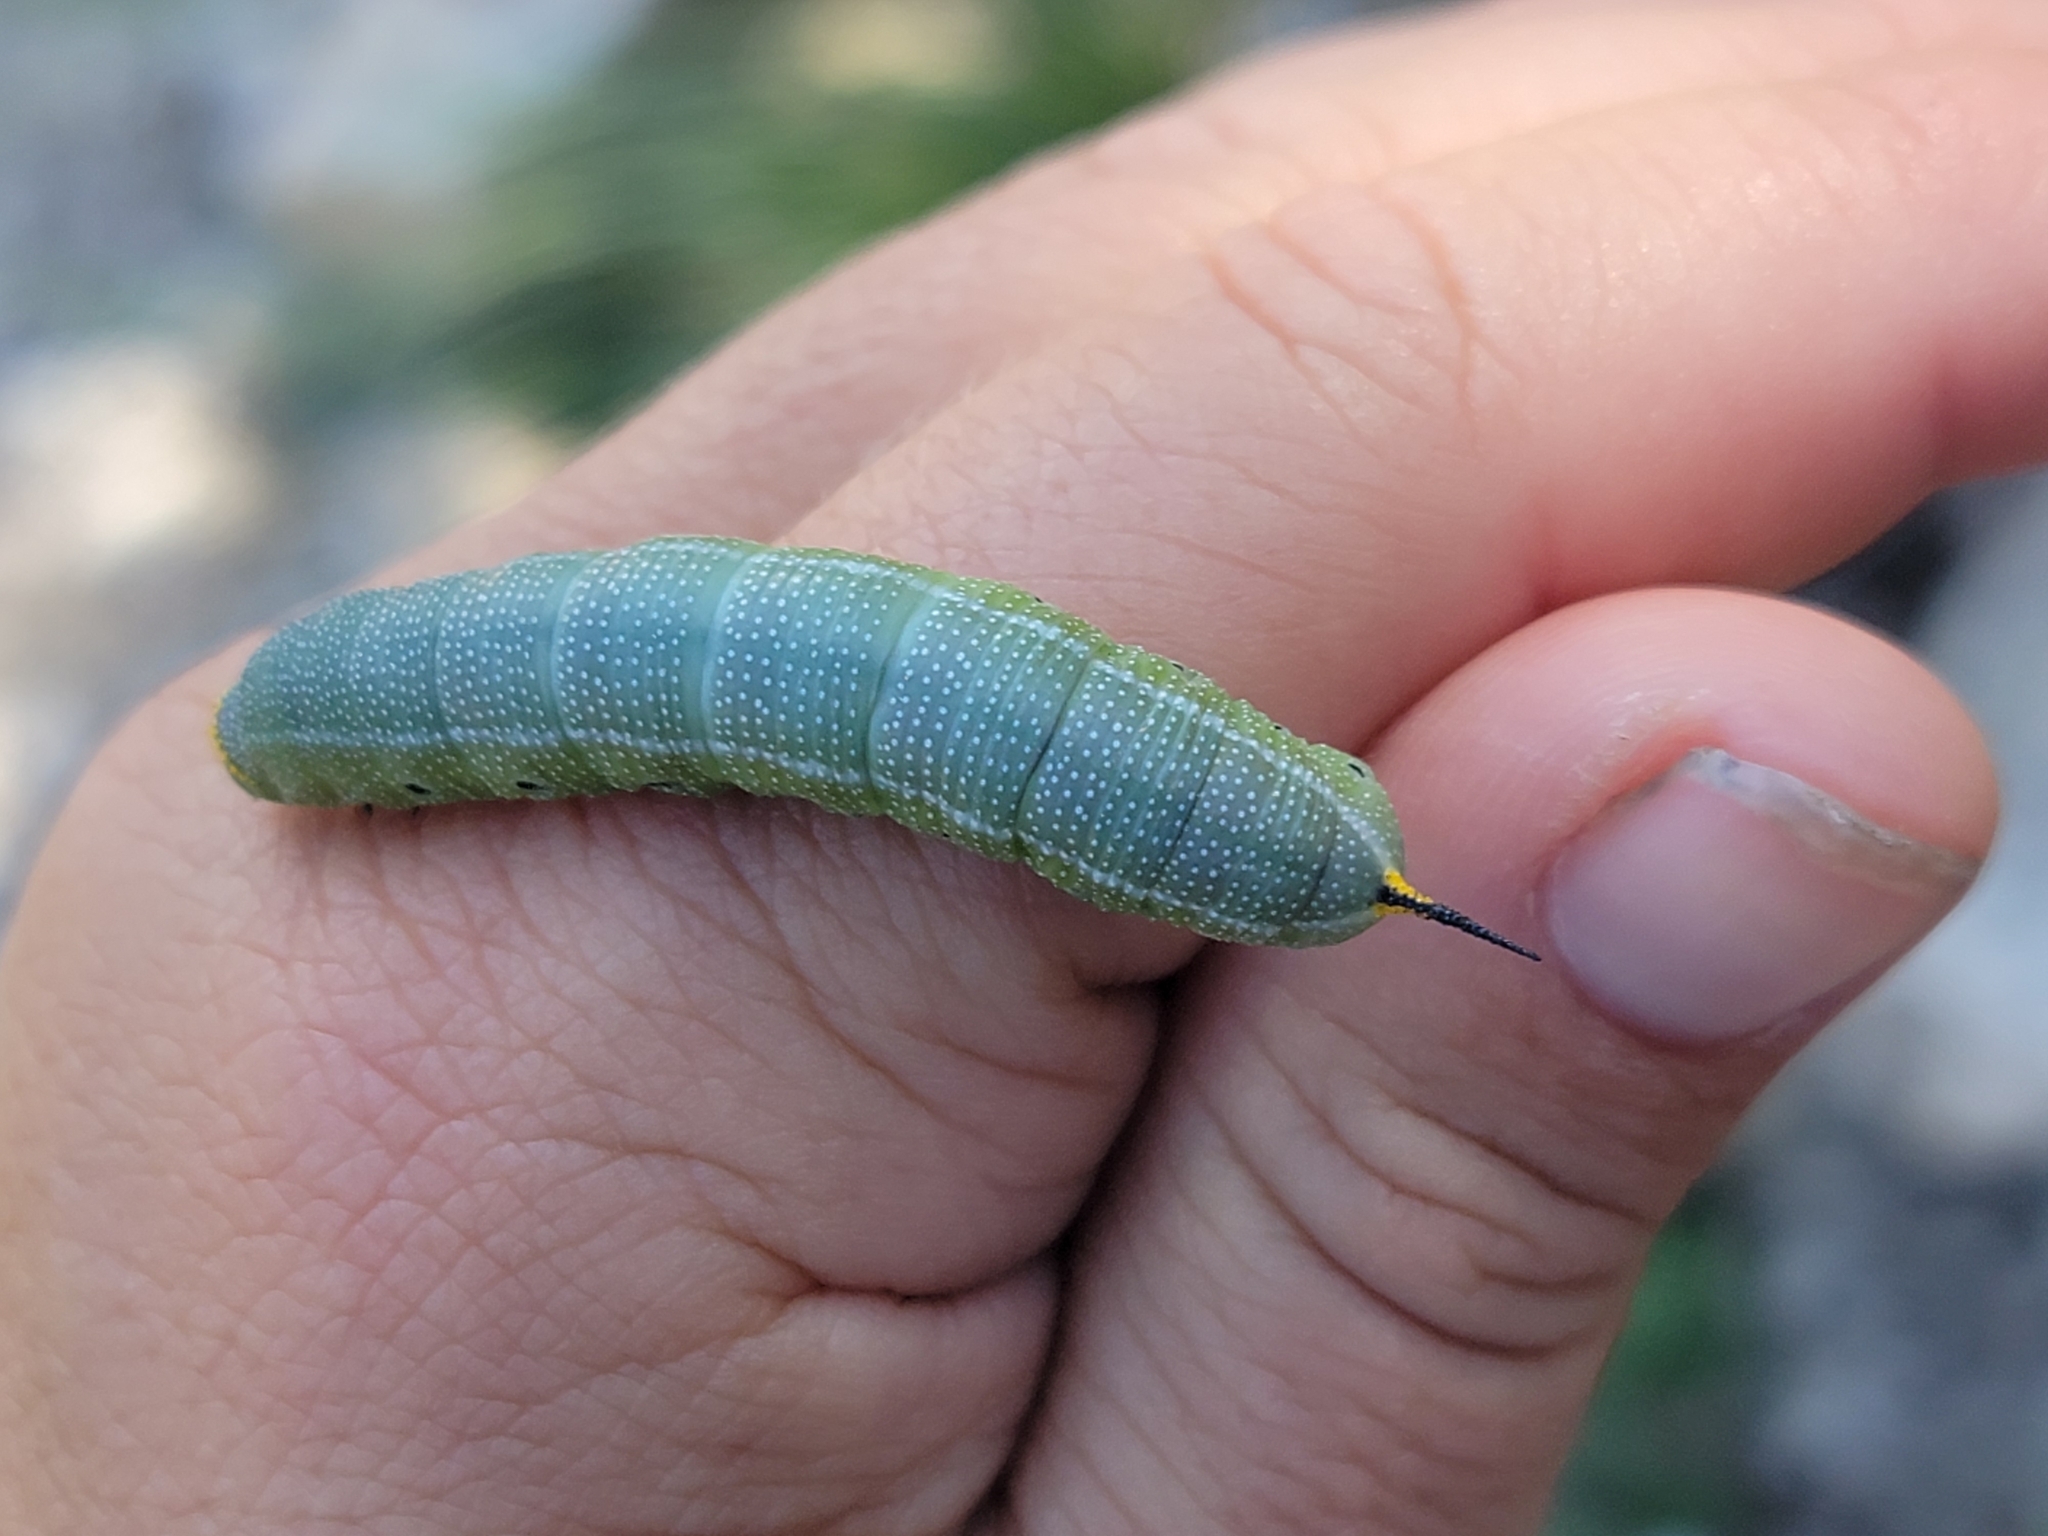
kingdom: Animalia
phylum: Arthropoda
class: Insecta
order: Lepidoptera
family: Sphingidae
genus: Hemaris
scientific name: Hemaris diffinis
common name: Bumblebee moth
